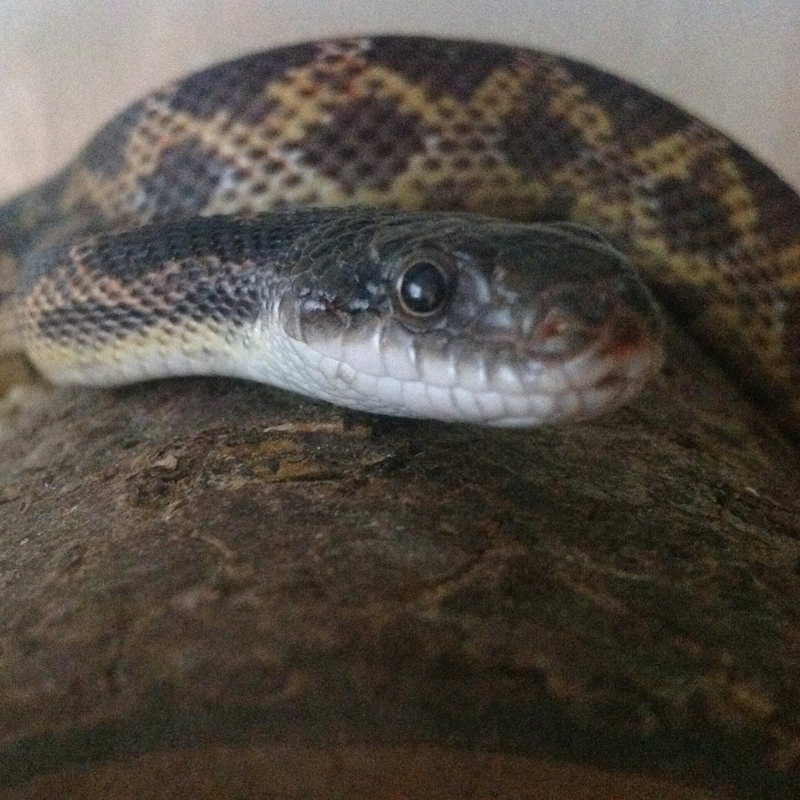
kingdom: Animalia
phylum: Chordata
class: Squamata
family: Colubridae
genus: Pantherophis
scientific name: Pantherophis obsoletus
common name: Black rat snake
